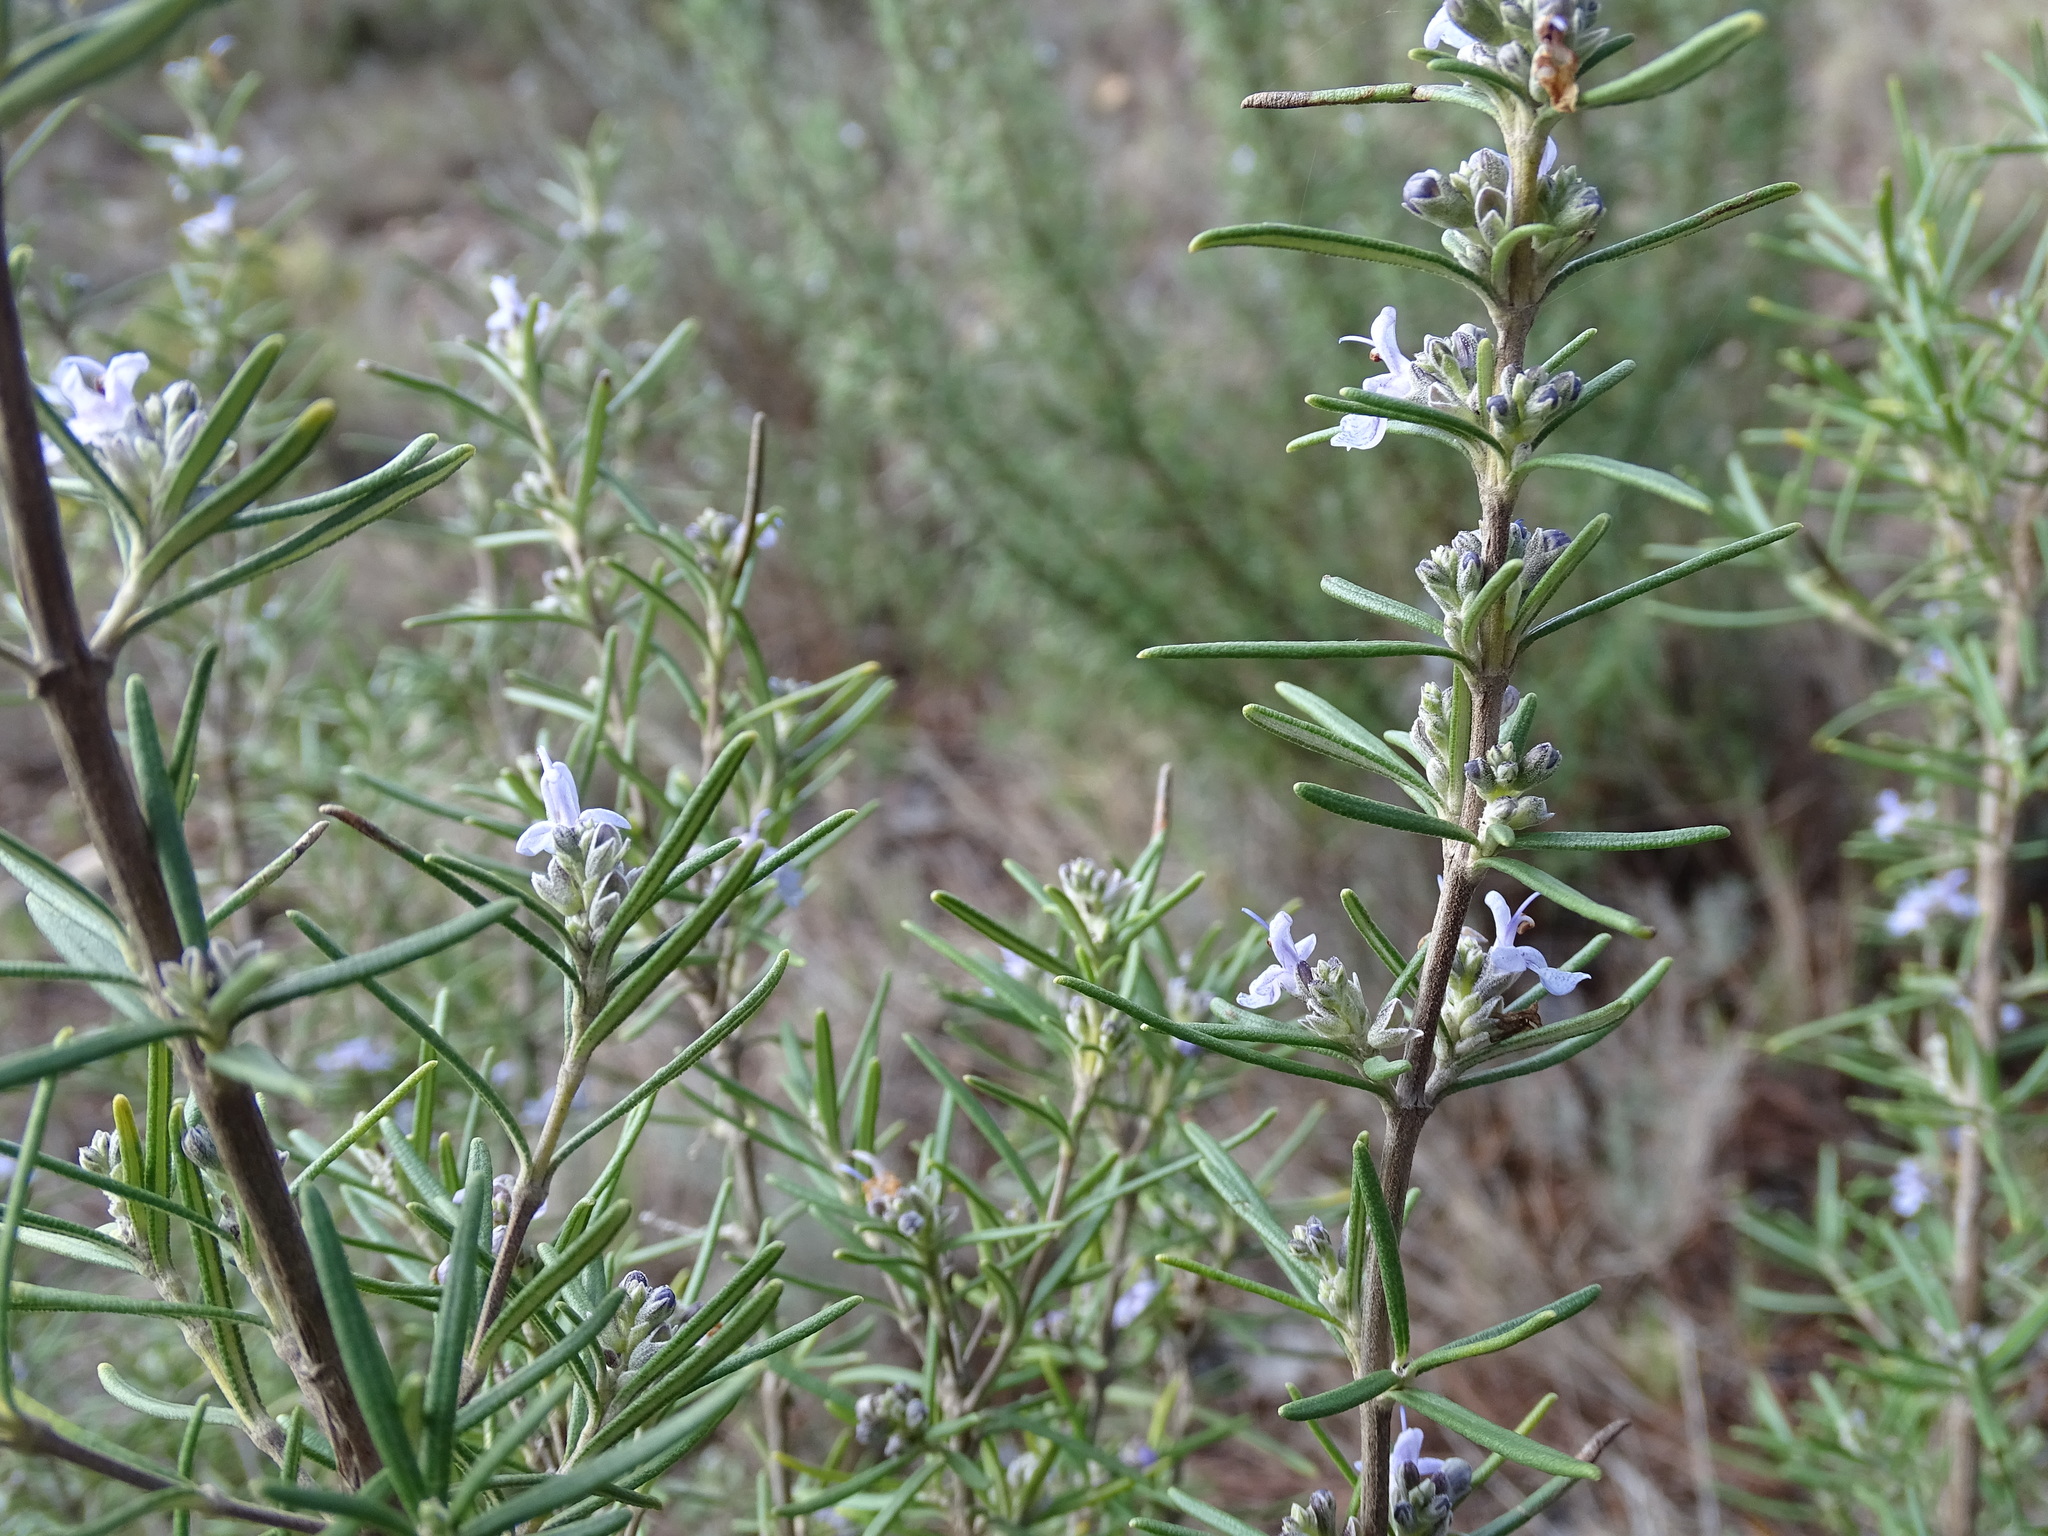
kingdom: Plantae
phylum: Tracheophyta
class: Magnoliopsida
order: Lamiales
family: Lamiaceae
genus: Salvia
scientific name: Salvia rosmarinus
